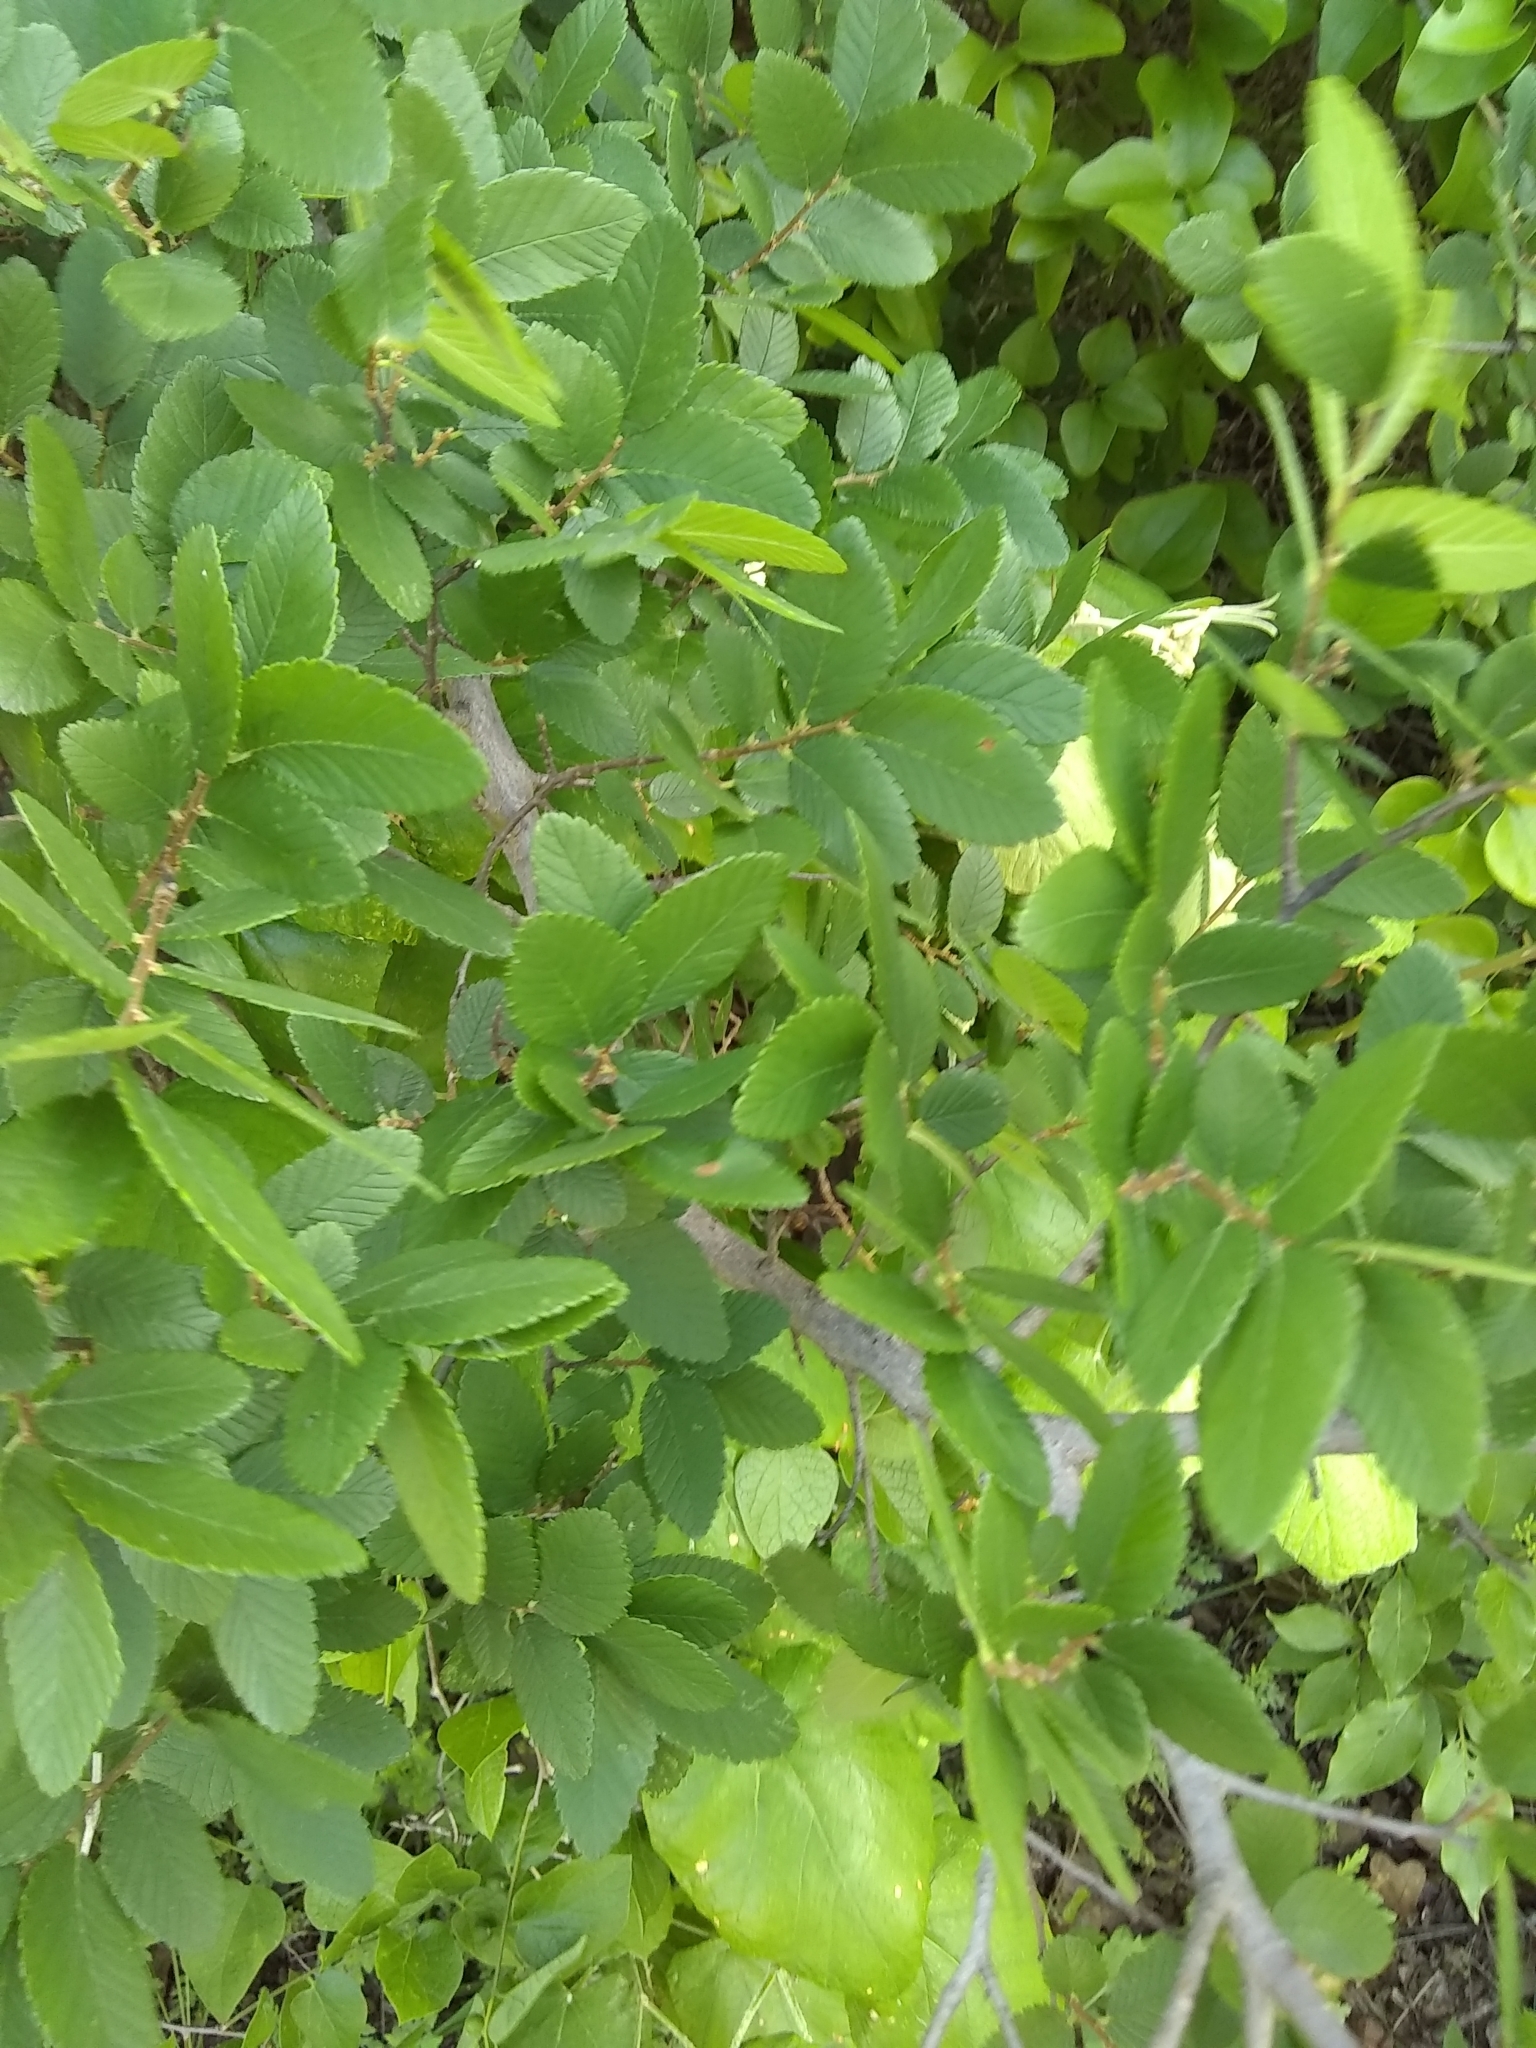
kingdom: Plantae
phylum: Tracheophyta
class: Magnoliopsida
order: Rosales
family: Ulmaceae
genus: Ulmus
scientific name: Ulmus crassifolia
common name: Basket elm
